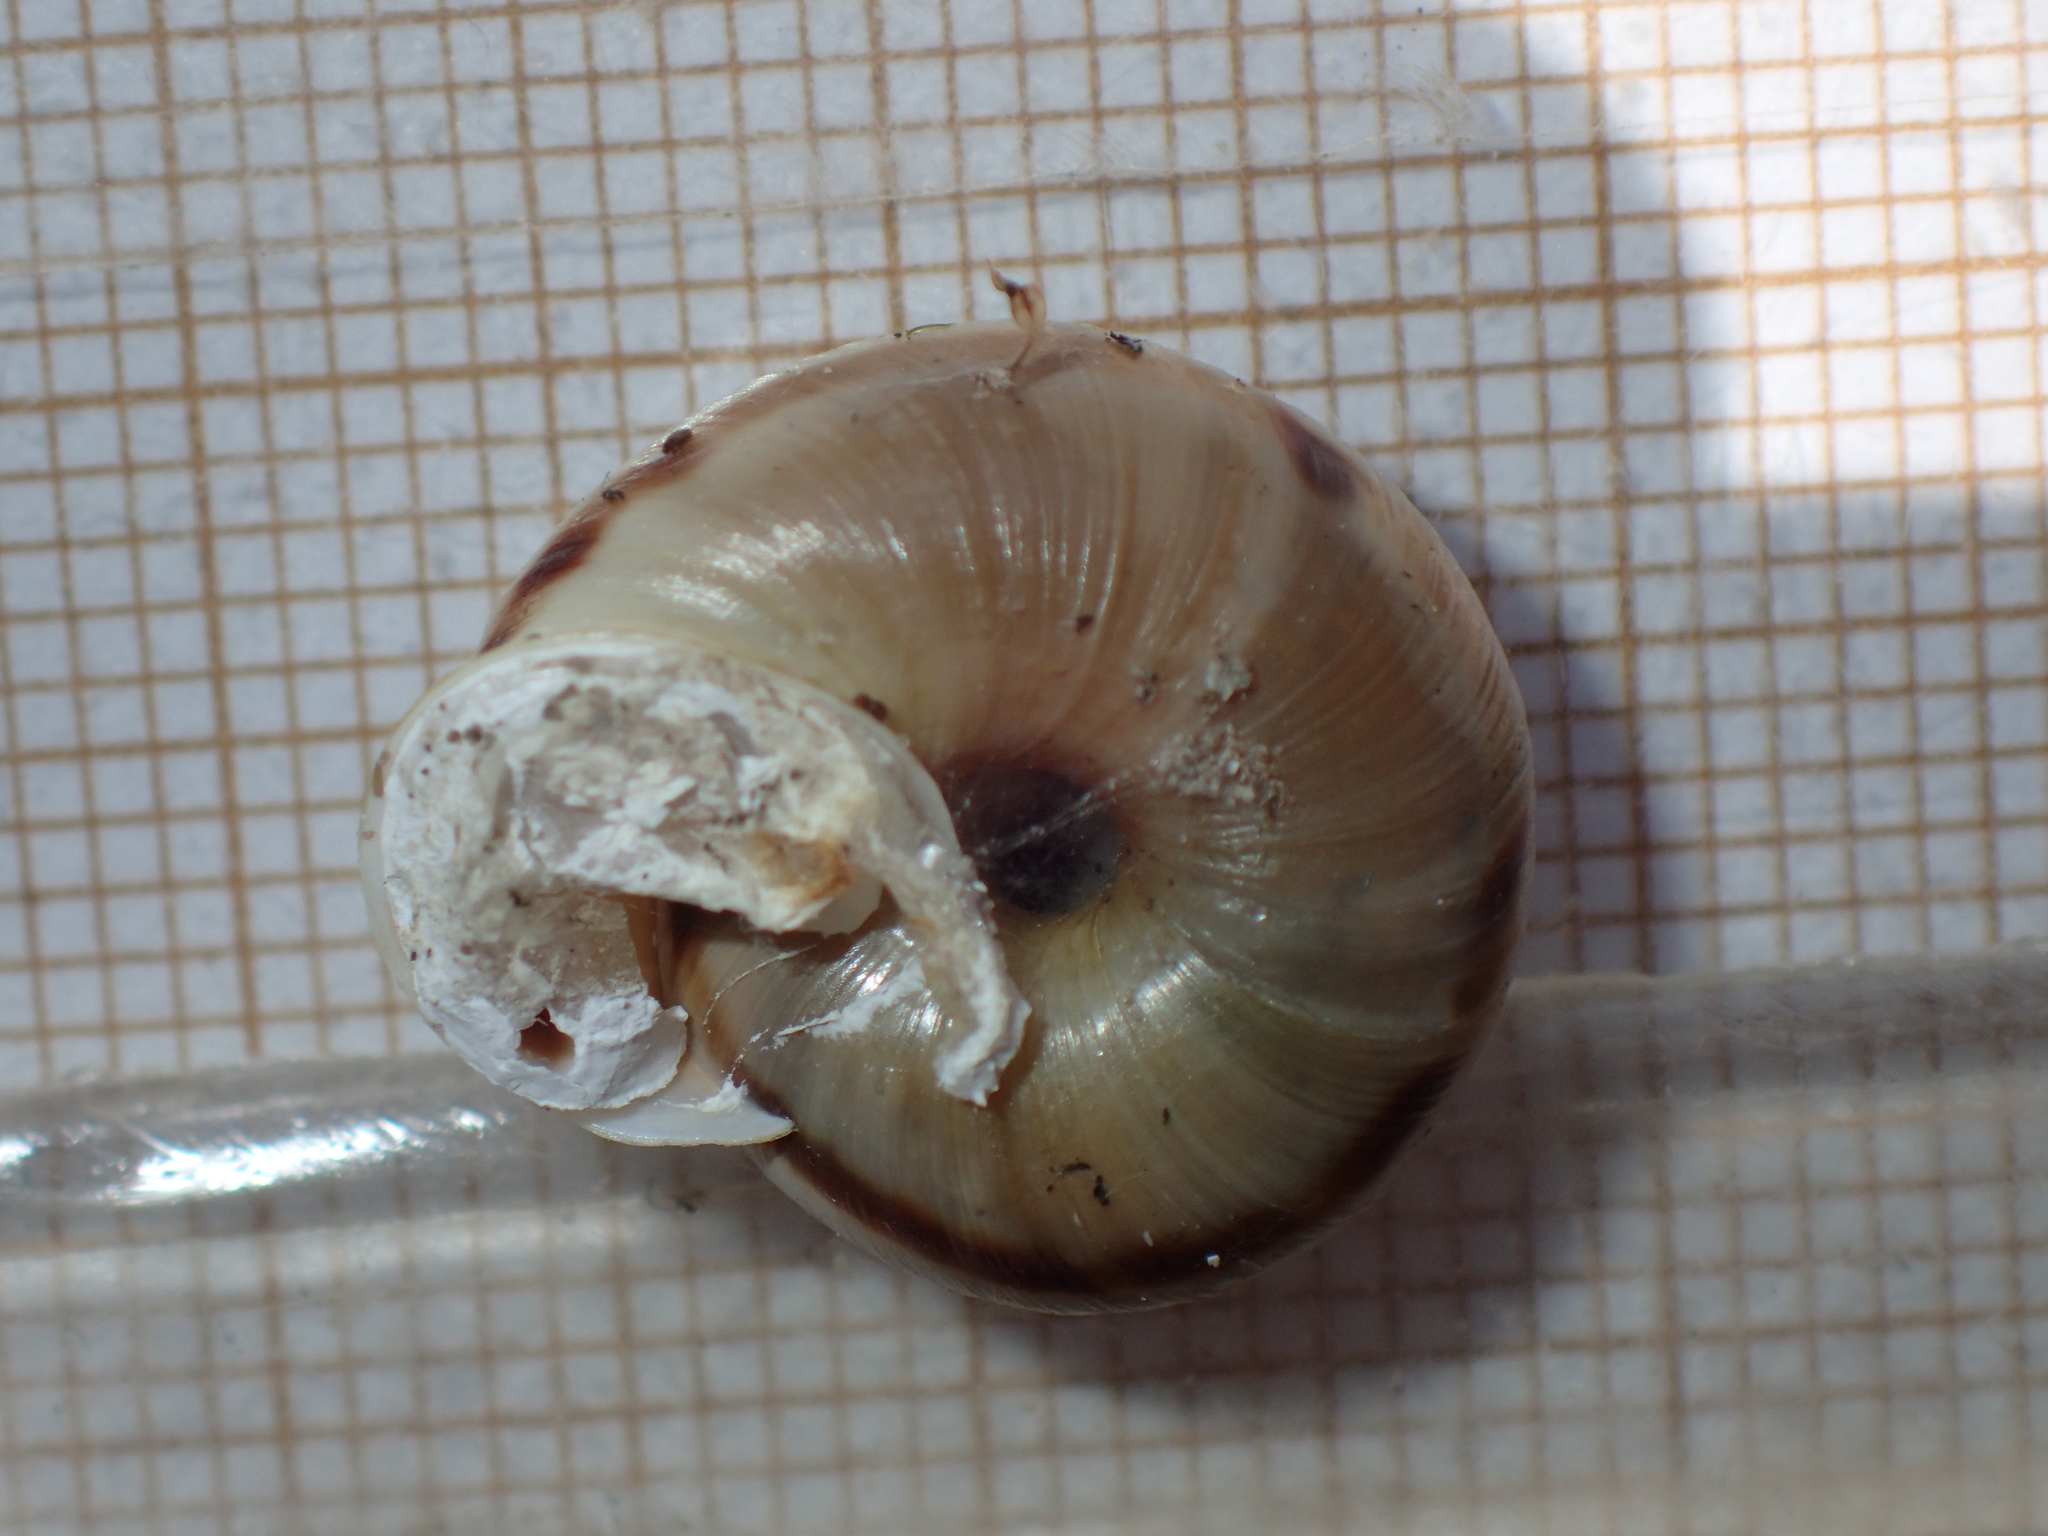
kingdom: Animalia
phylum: Mollusca
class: Gastropoda
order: Stylommatophora
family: Helicidae
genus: Kosicia
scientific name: Kosicia intermedia
